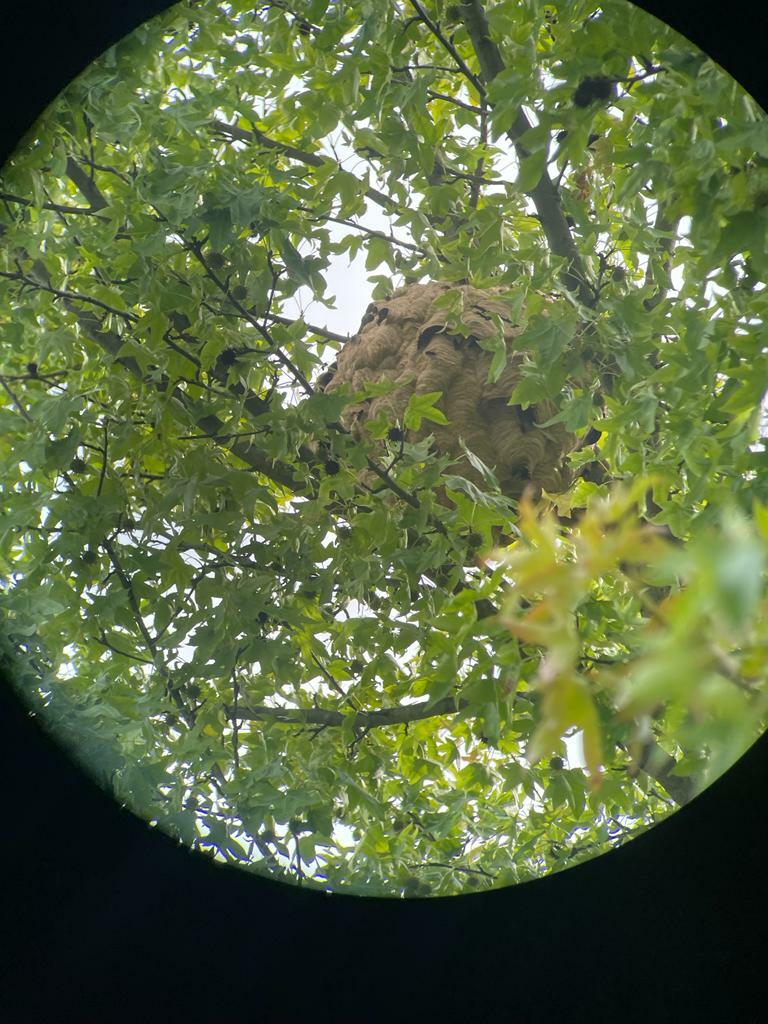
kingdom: Animalia
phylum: Arthropoda
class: Insecta
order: Hymenoptera
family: Vespidae
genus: Vespa
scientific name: Vespa velutina
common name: Asian hornet
